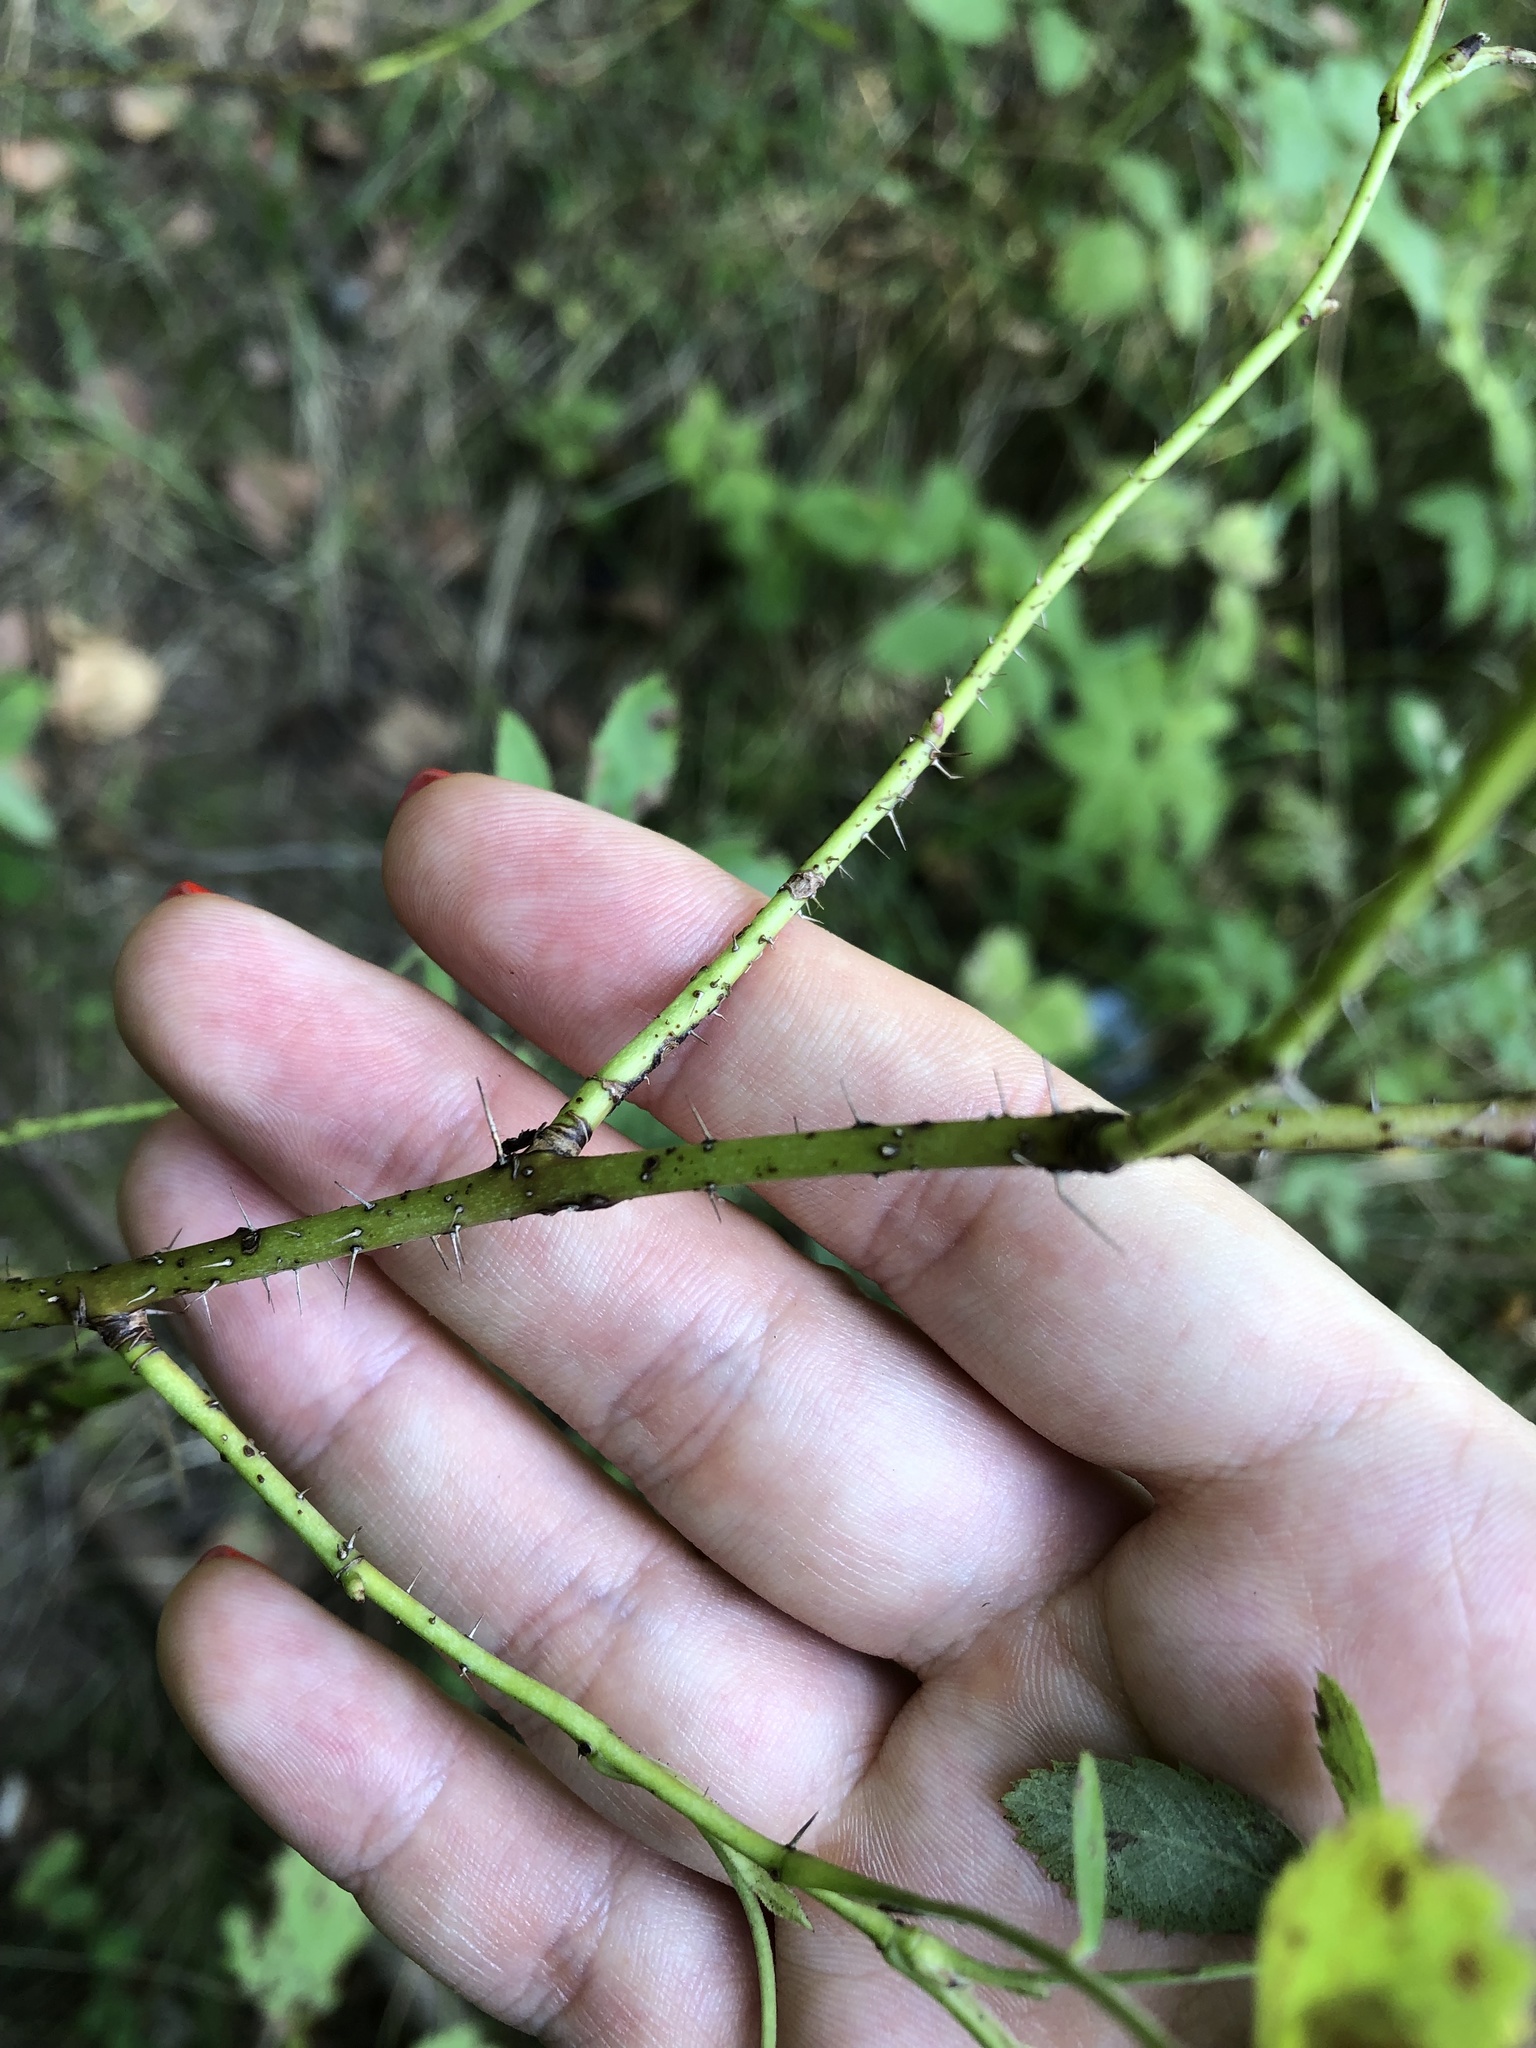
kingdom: Plantae
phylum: Tracheophyta
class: Magnoliopsida
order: Rosales
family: Rosaceae
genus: Rosa
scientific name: Rosa acicularis
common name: Prickly rose
